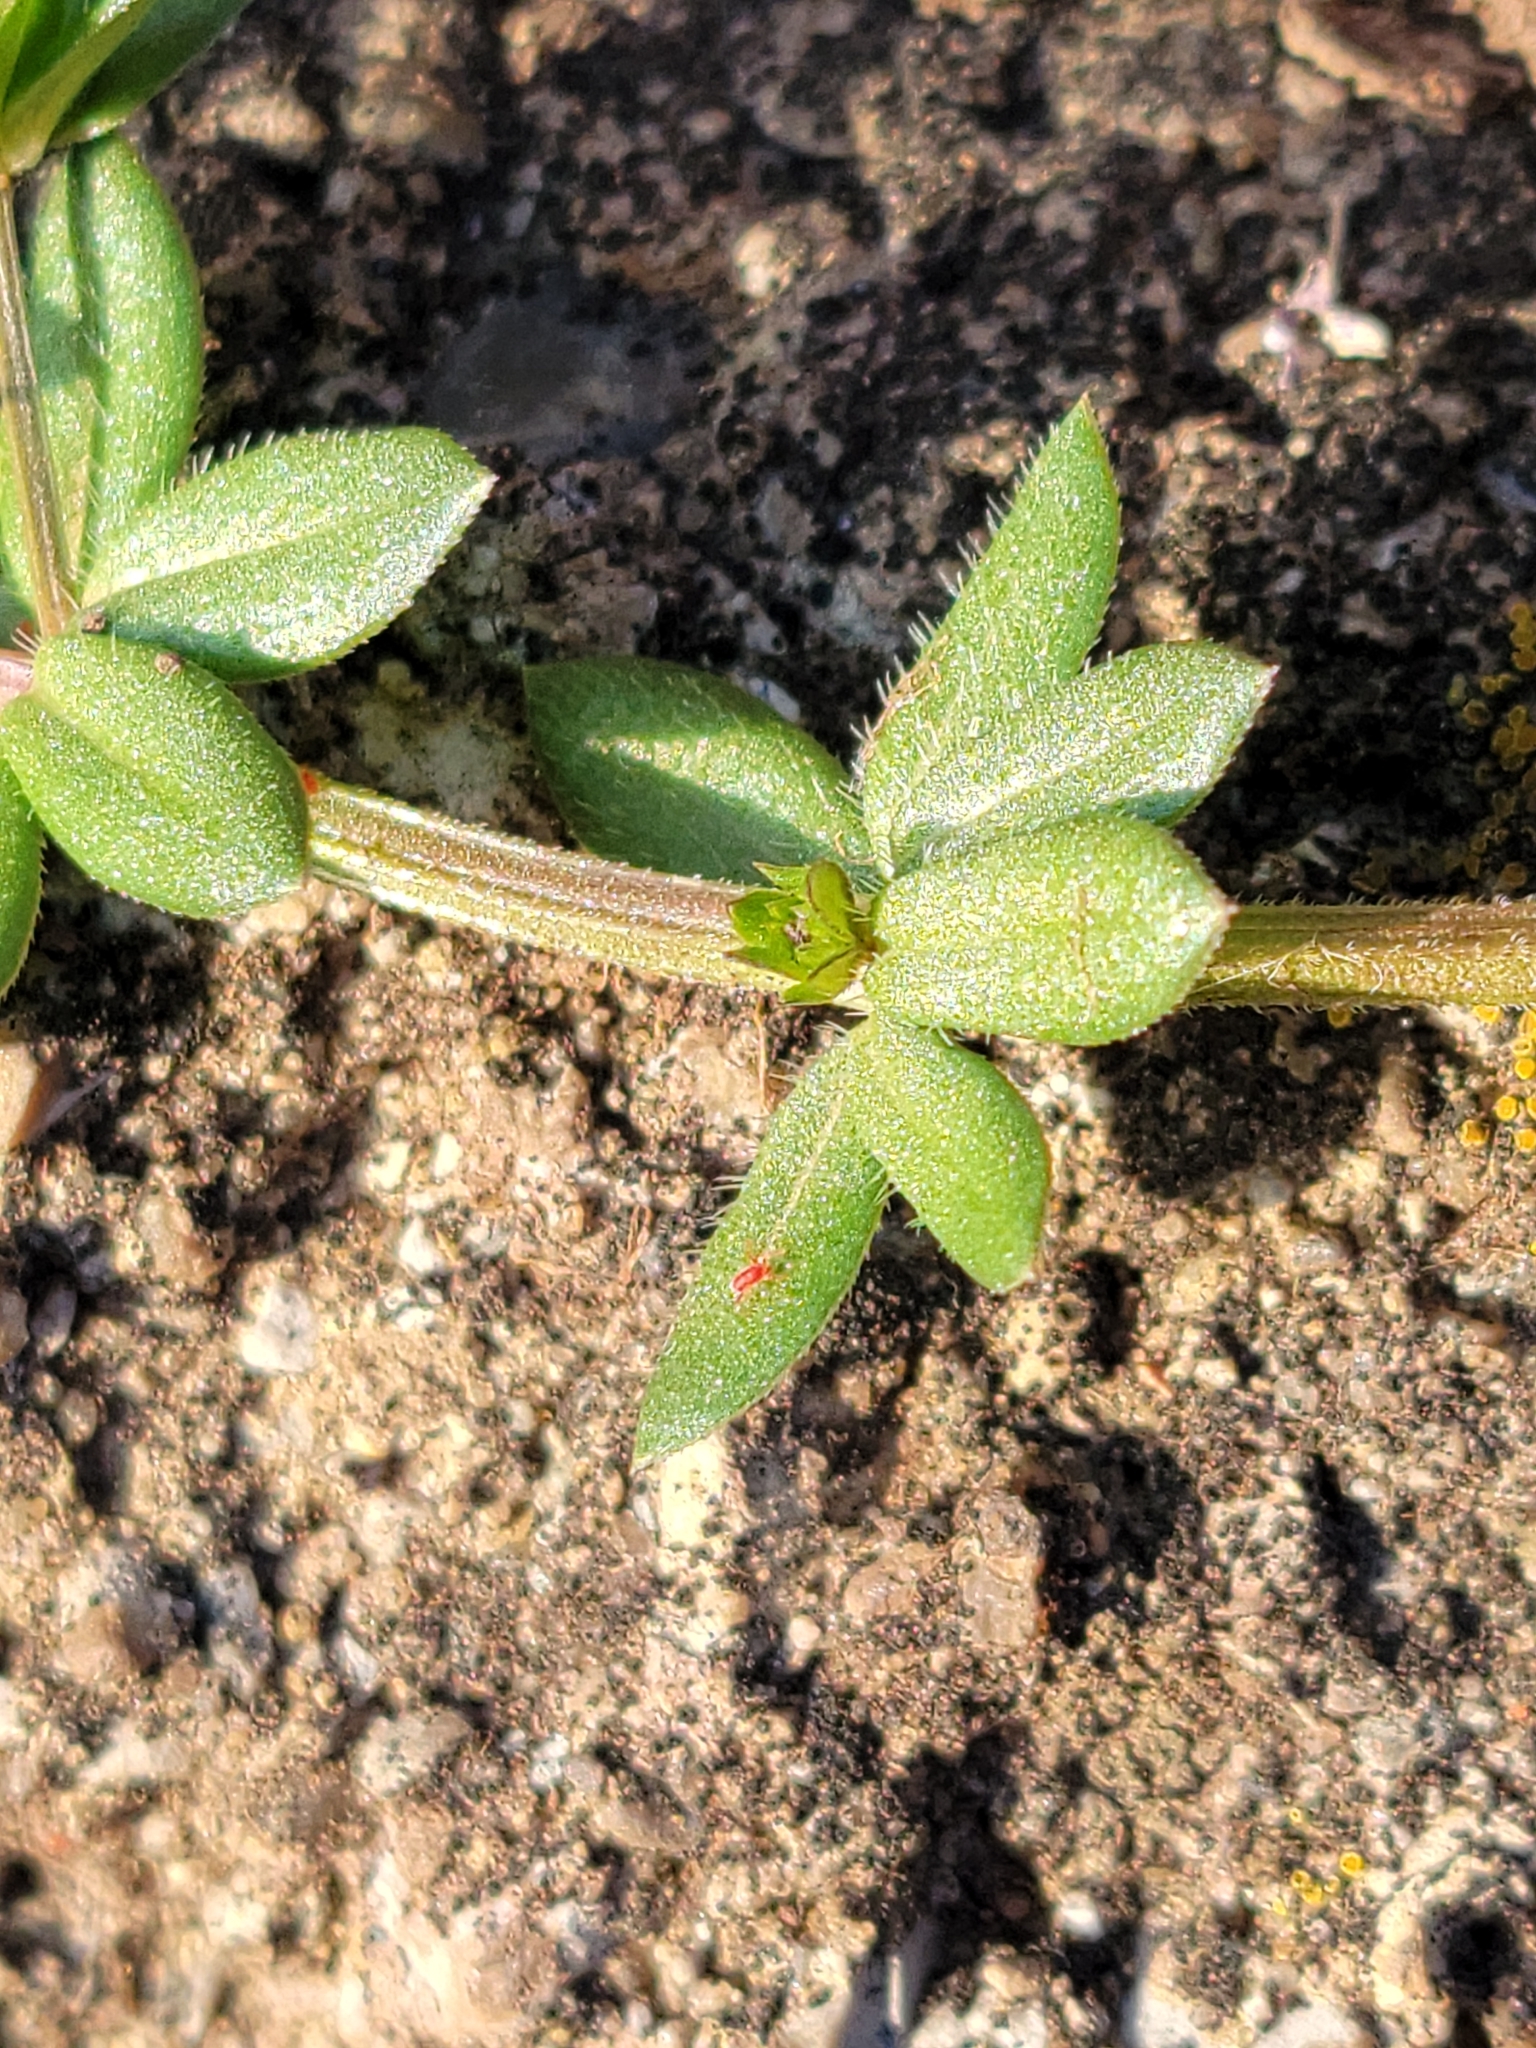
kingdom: Plantae
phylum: Tracheophyta
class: Magnoliopsida
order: Gentianales
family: Rubiaceae
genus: Sherardia
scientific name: Sherardia arvensis
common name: Field madder
